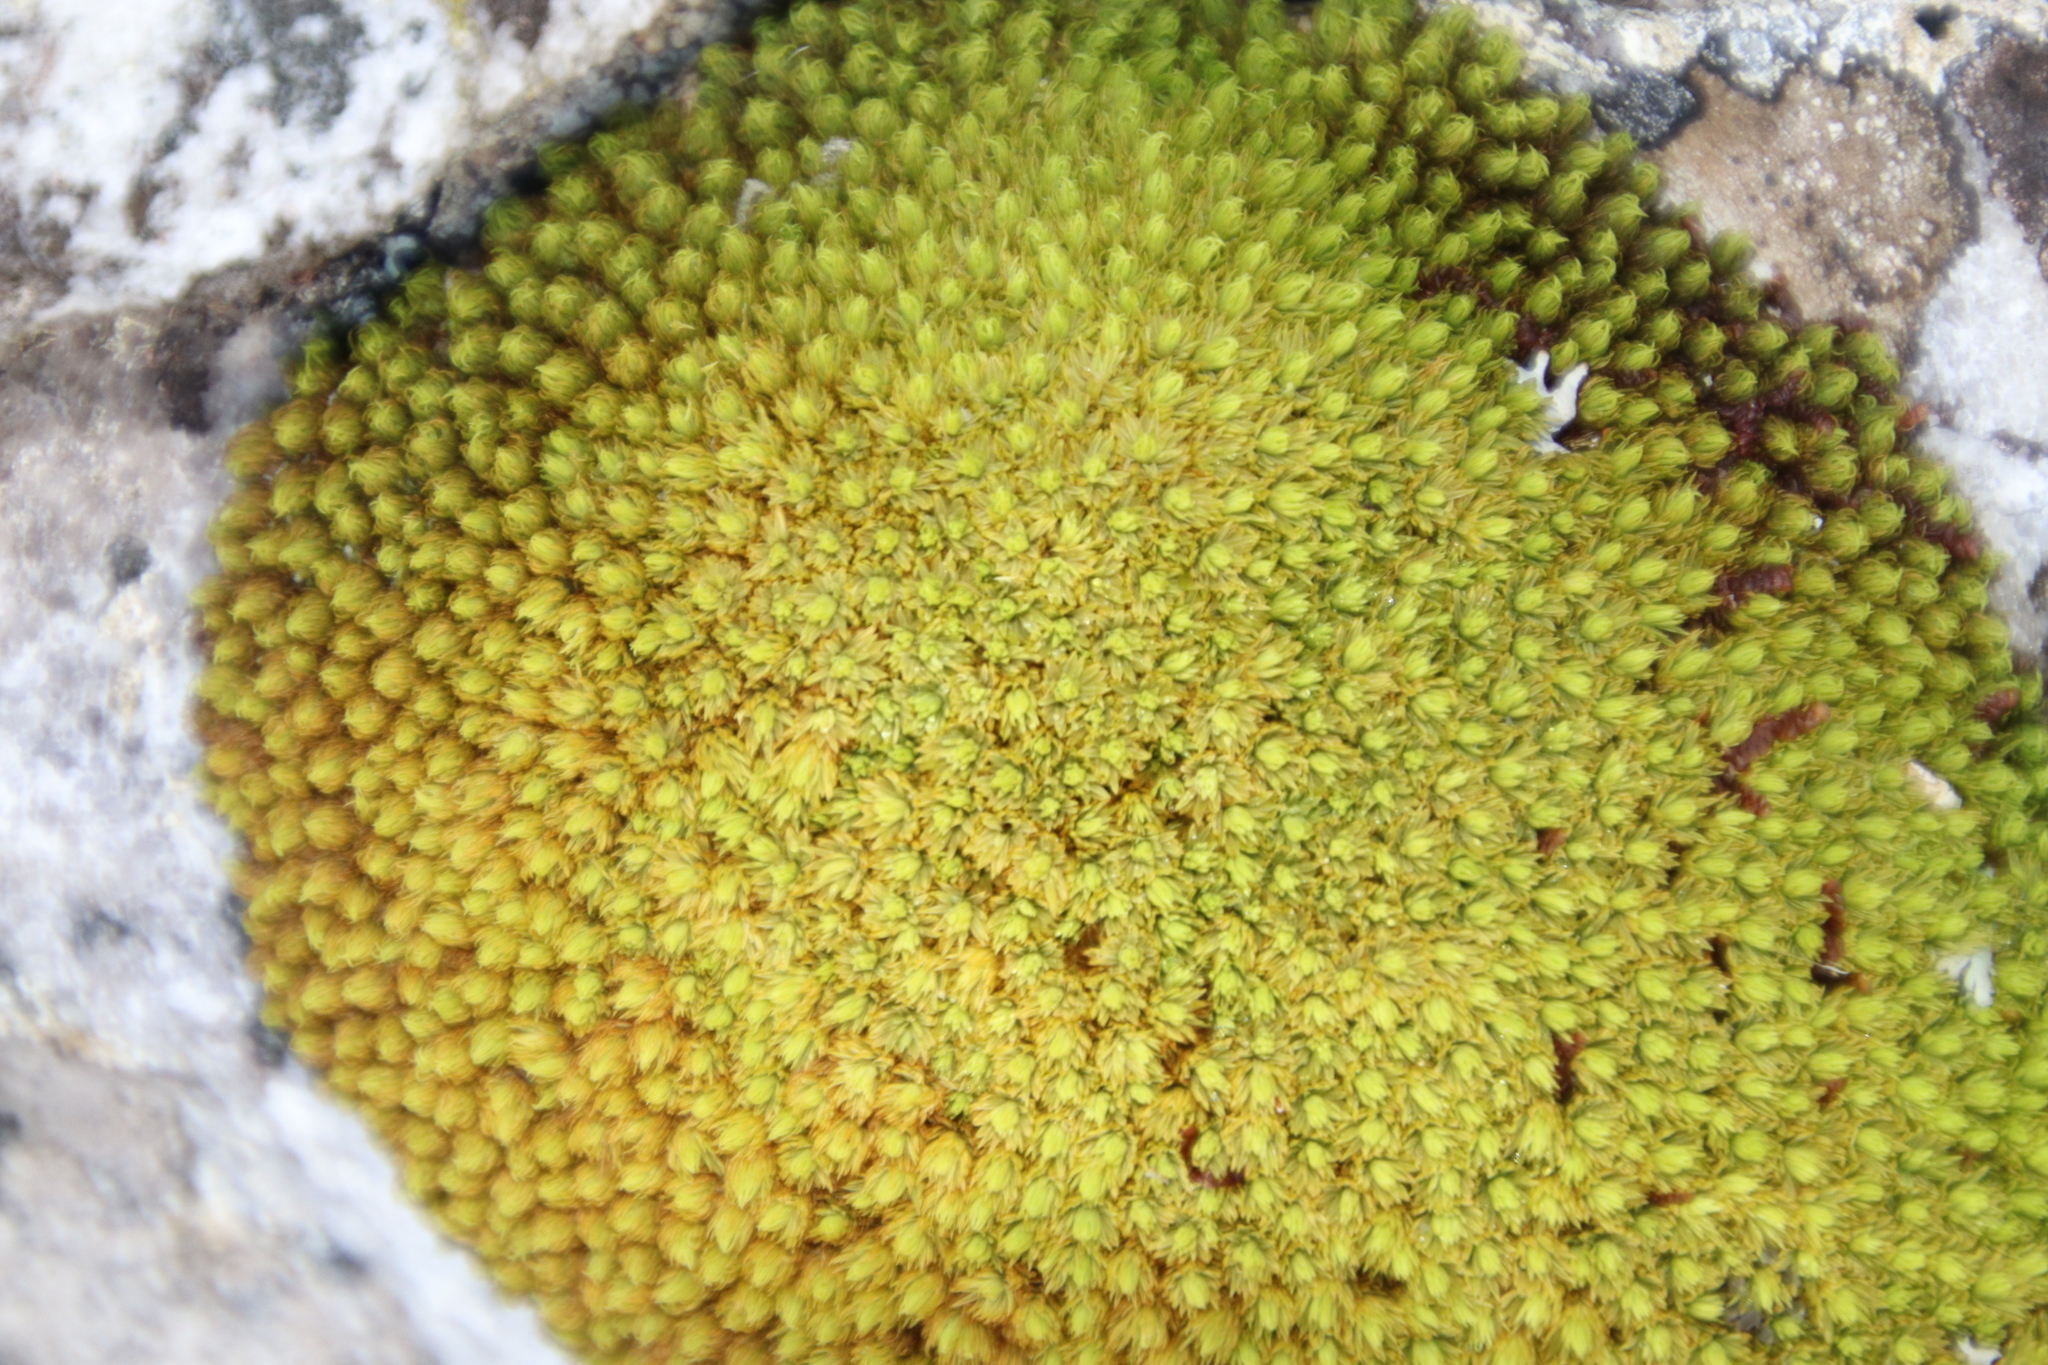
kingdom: Plantae
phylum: Bryophyta
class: Bryopsida
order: Dicranales
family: Hypodontiaceae
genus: Hypodontium
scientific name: Hypodontium pomiforme
